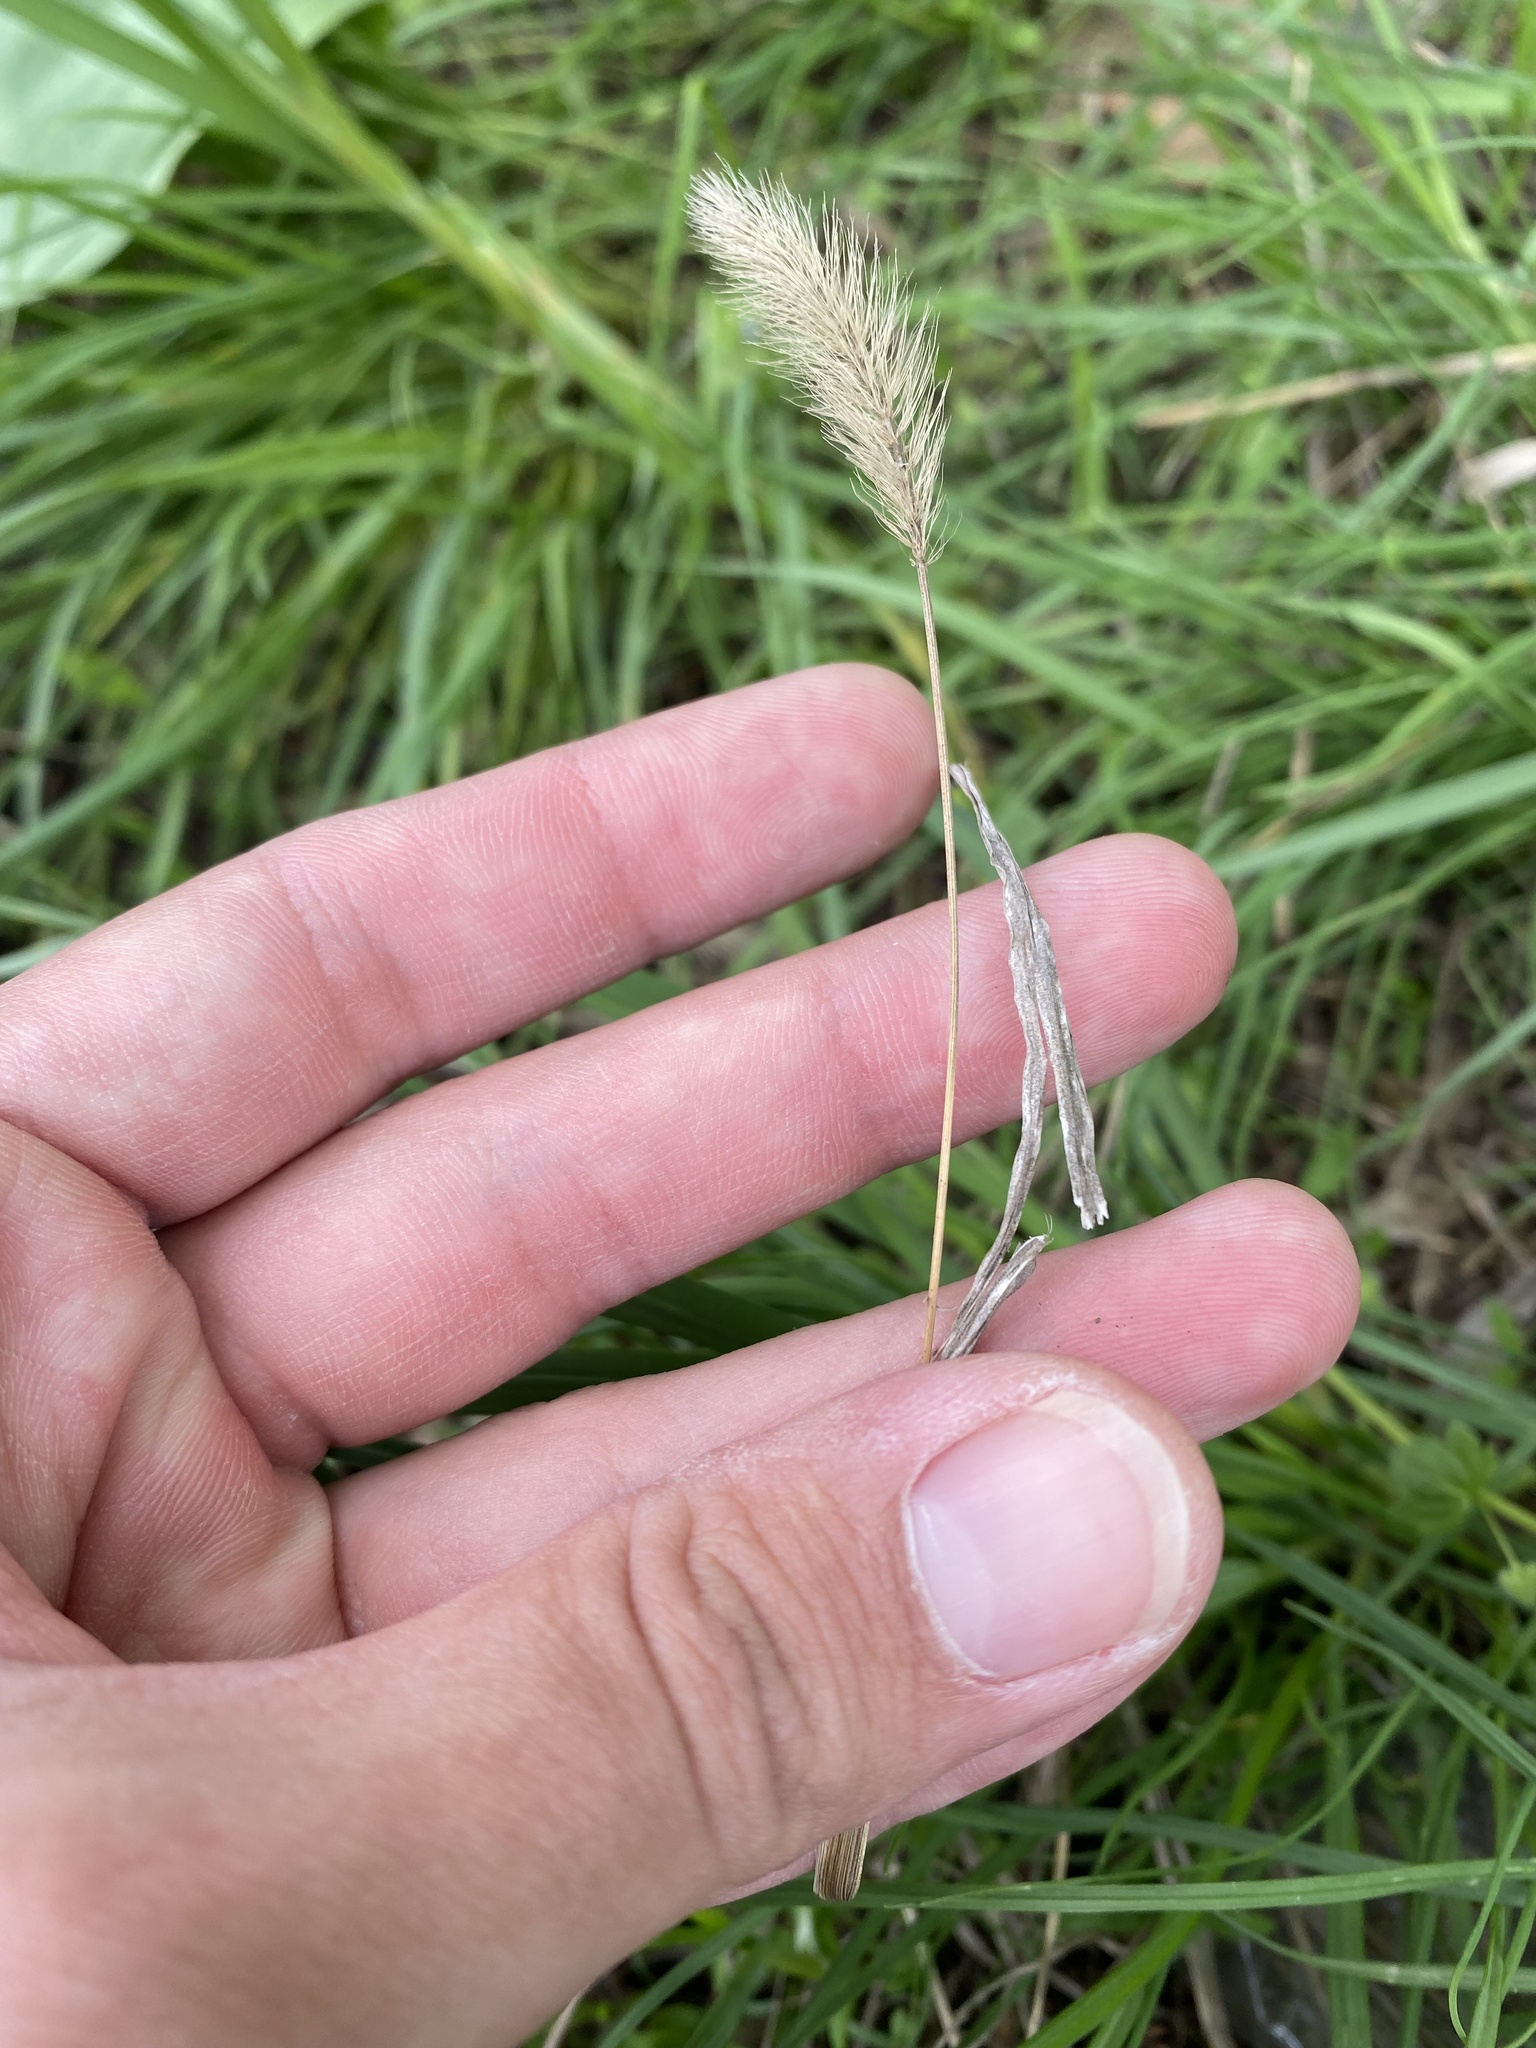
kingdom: Plantae
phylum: Tracheophyta
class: Liliopsida
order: Poales
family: Poaceae
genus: Setaria
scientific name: Setaria viridis
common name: Green bristlegrass
